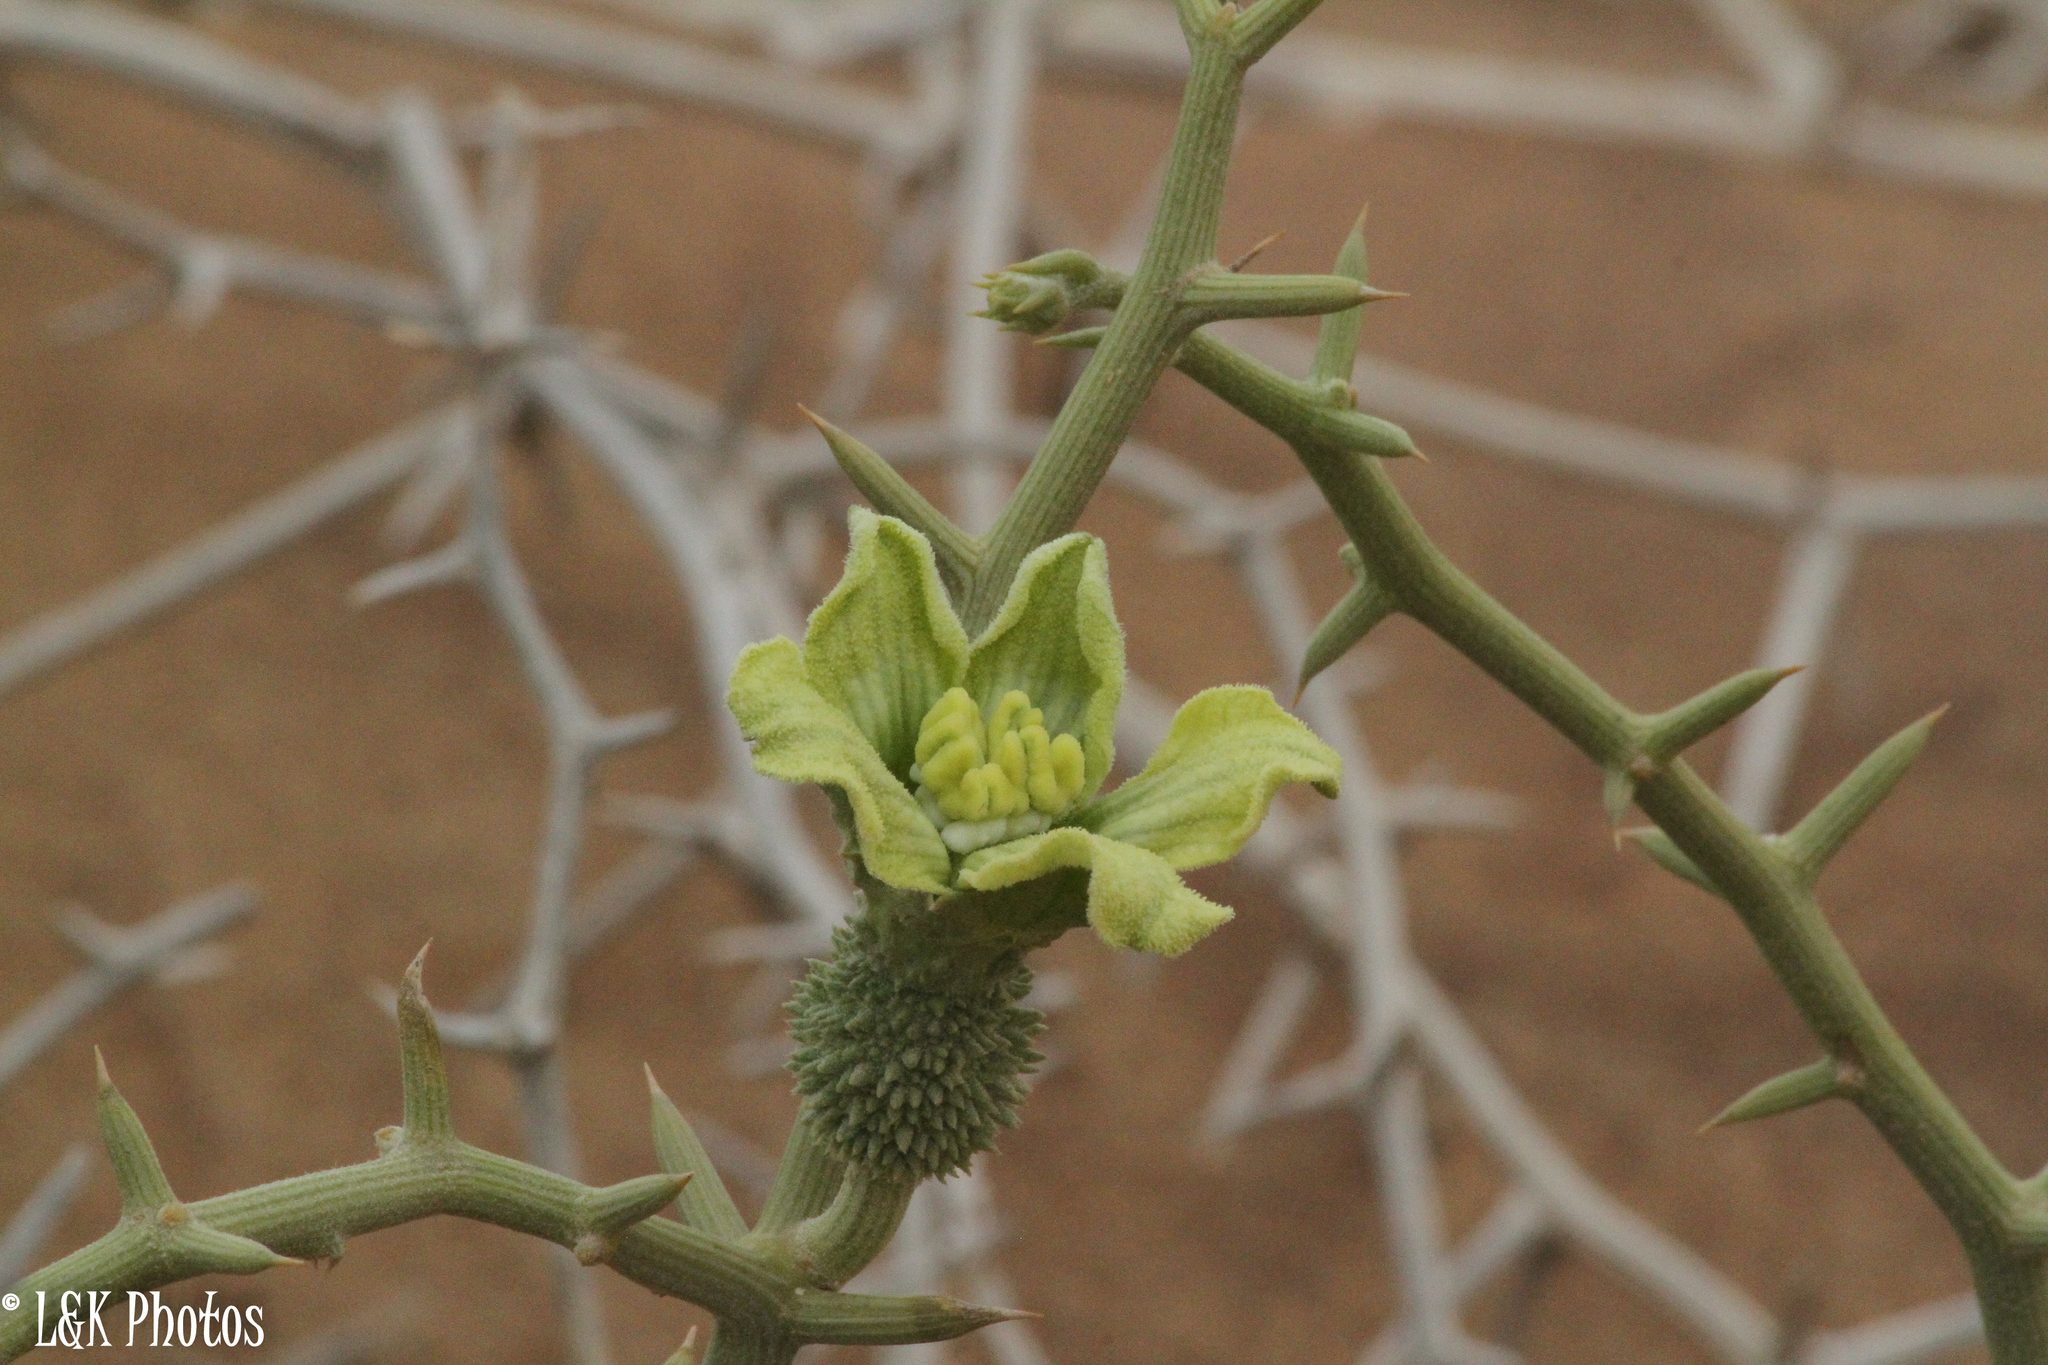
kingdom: Plantae
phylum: Tracheophyta
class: Magnoliopsida
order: Cucurbitales
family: Cucurbitaceae
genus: Acanthosicyos
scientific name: Acanthosicyos horridus
